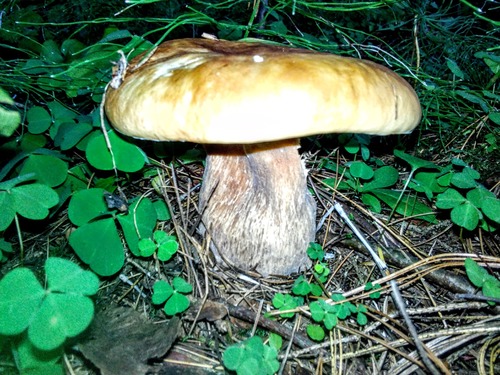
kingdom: Fungi
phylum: Basidiomycota
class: Agaricomycetes
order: Boletales
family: Boletaceae
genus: Boletus
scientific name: Boletus edulis
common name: Cep
